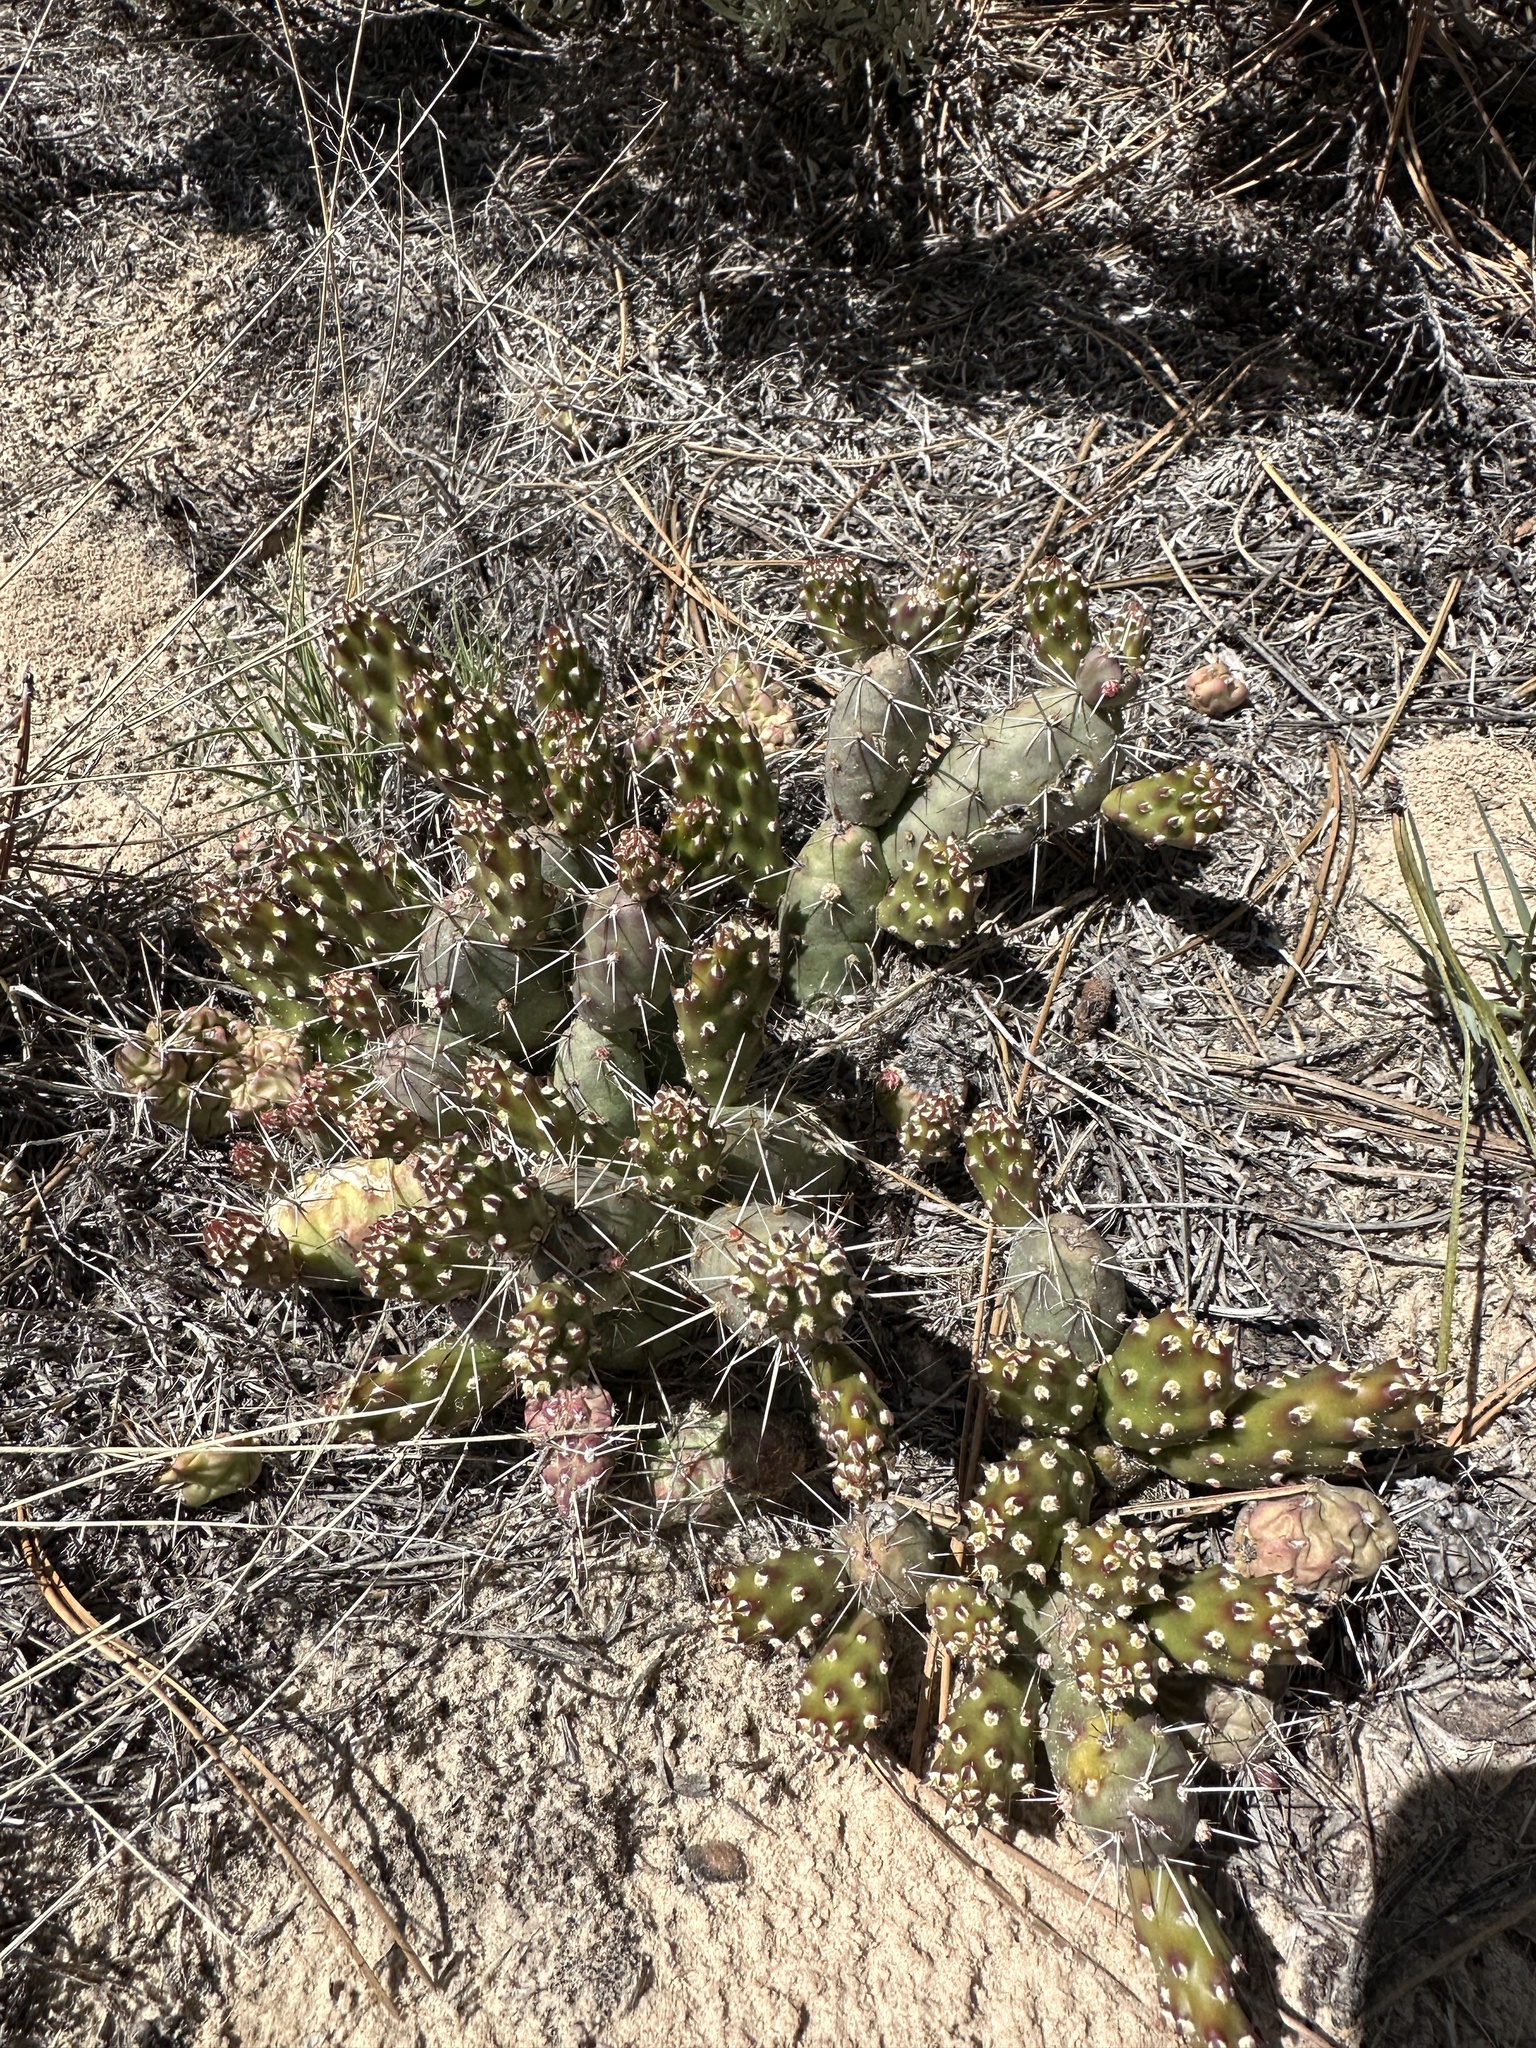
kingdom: Plantae
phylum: Tracheophyta
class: Magnoliopsida
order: Caryophyllales
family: Cactaceae
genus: Opuntia
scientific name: Opuntia fragilis
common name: Brittle cactus
